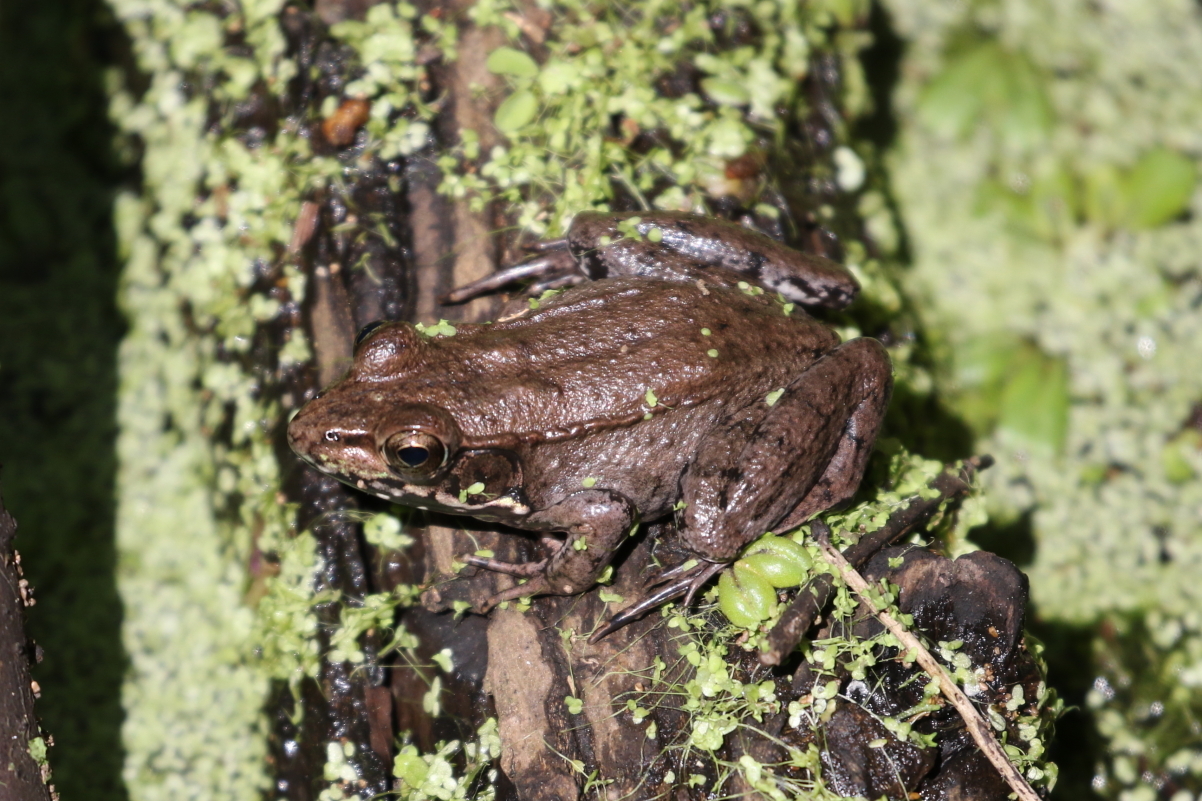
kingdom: Animalia
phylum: Chordata
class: Amphibia
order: Anura
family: Ranidae
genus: Lithobates
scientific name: Lithobates clamitans
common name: Green frog
